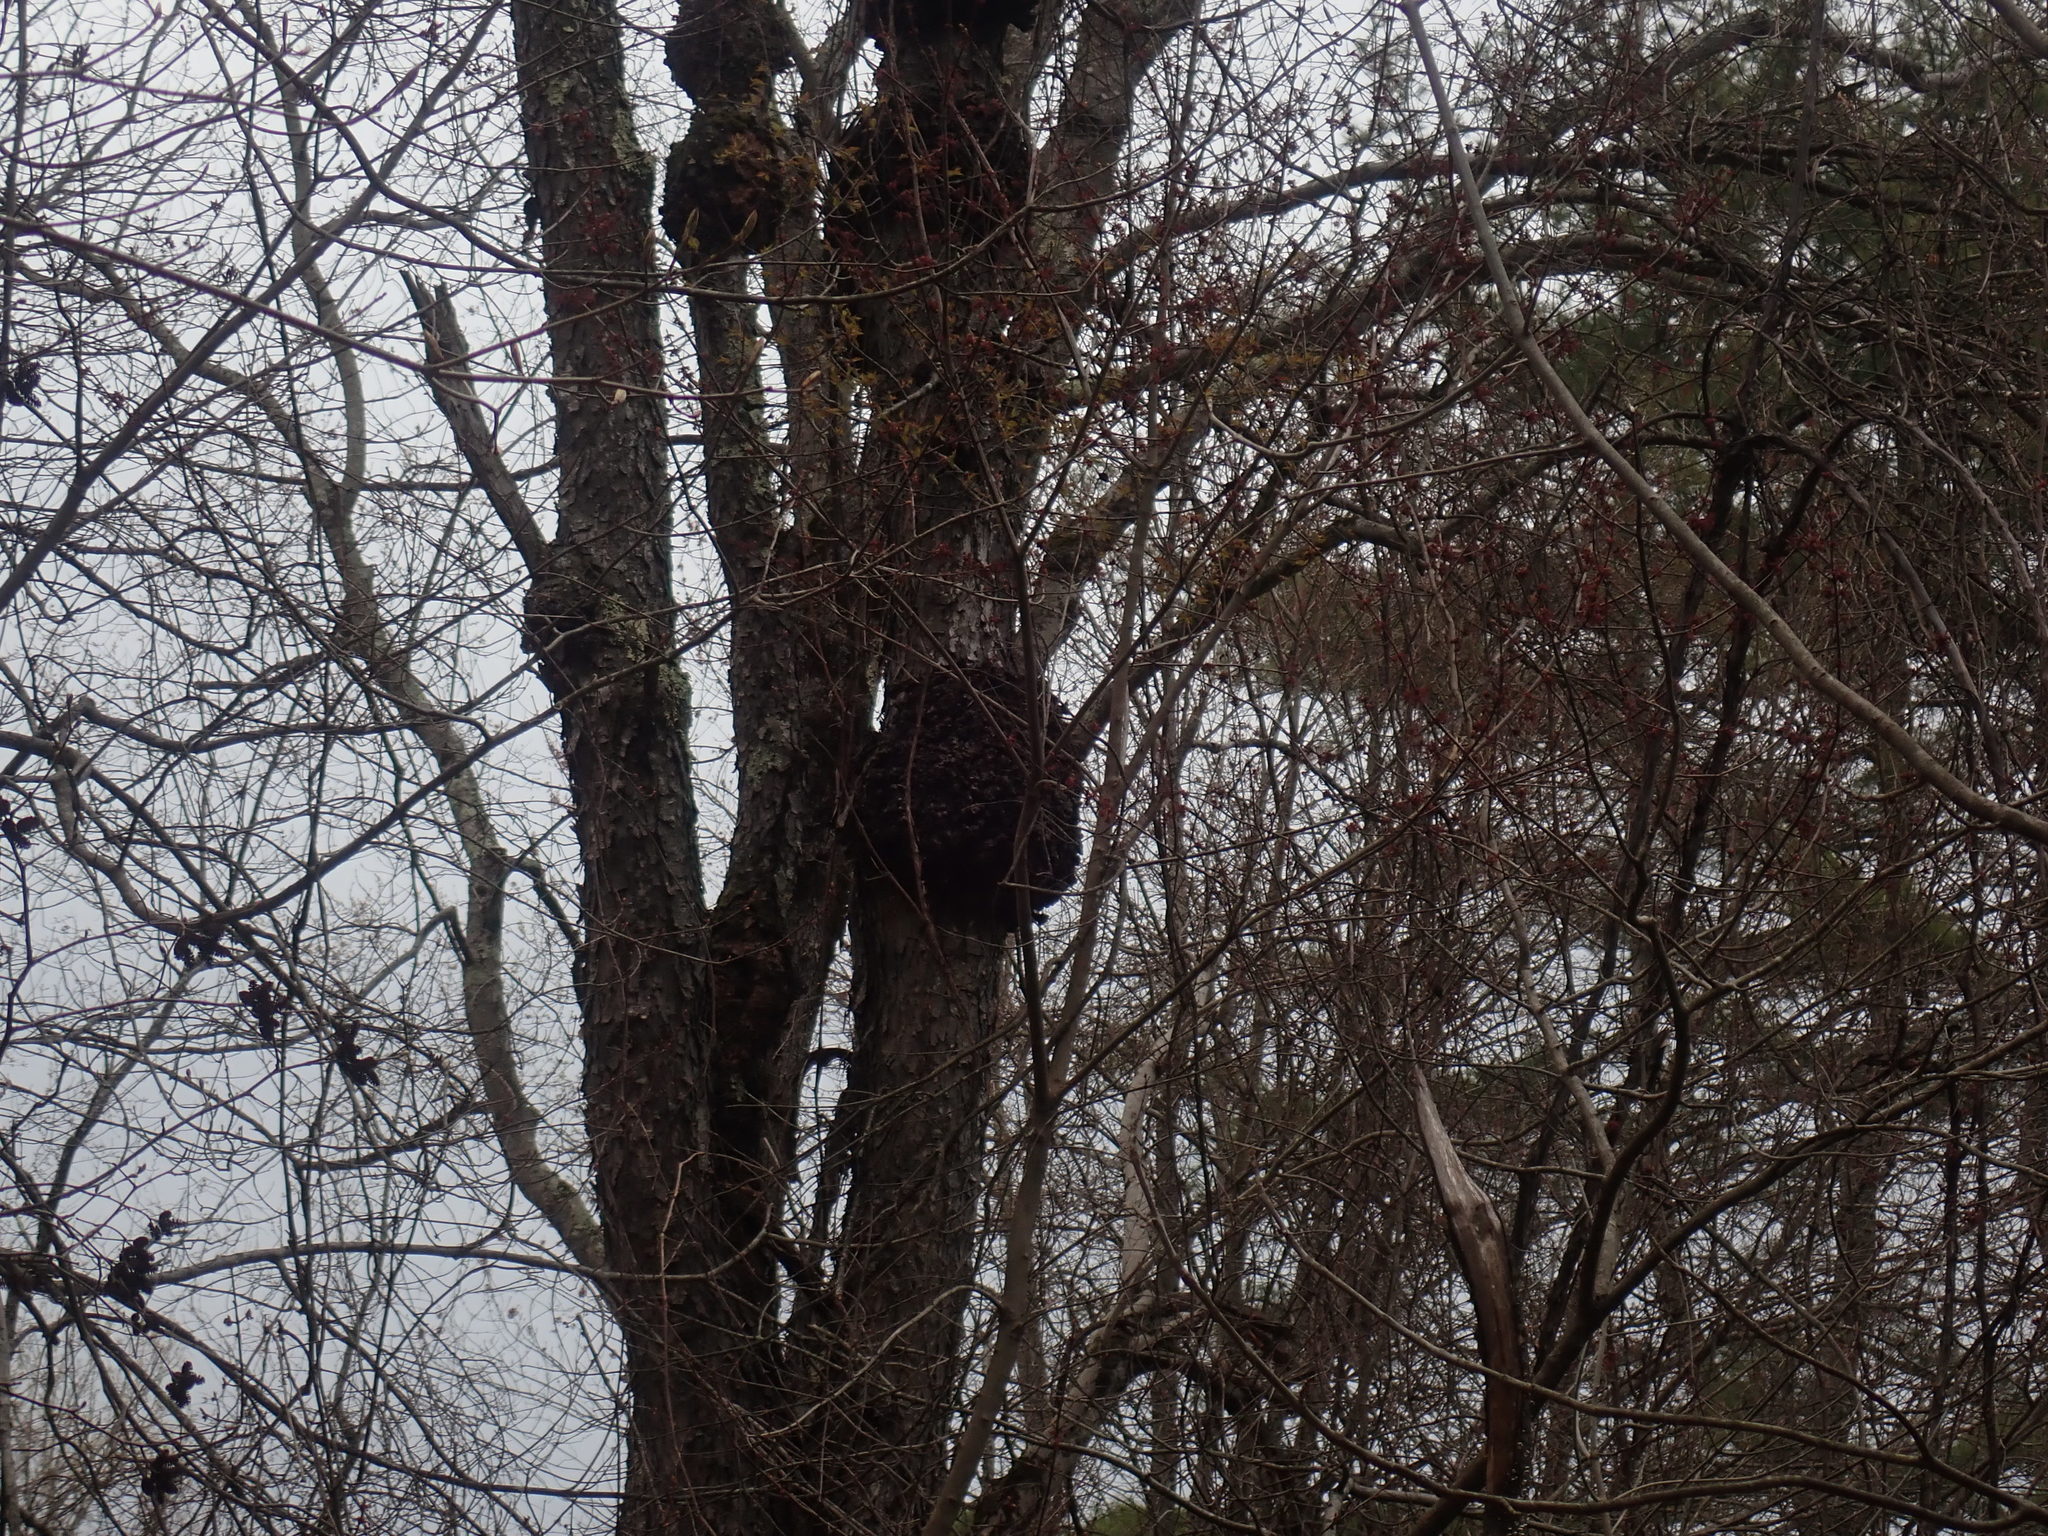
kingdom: Bacteria
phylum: Proteobacteria
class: Alphaproteobacteria
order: Rhizobiales
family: Rhizobiaceae
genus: Rhizobium
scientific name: Rhizobium Agrobacterium radiobacter
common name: Bacterial crown gall
